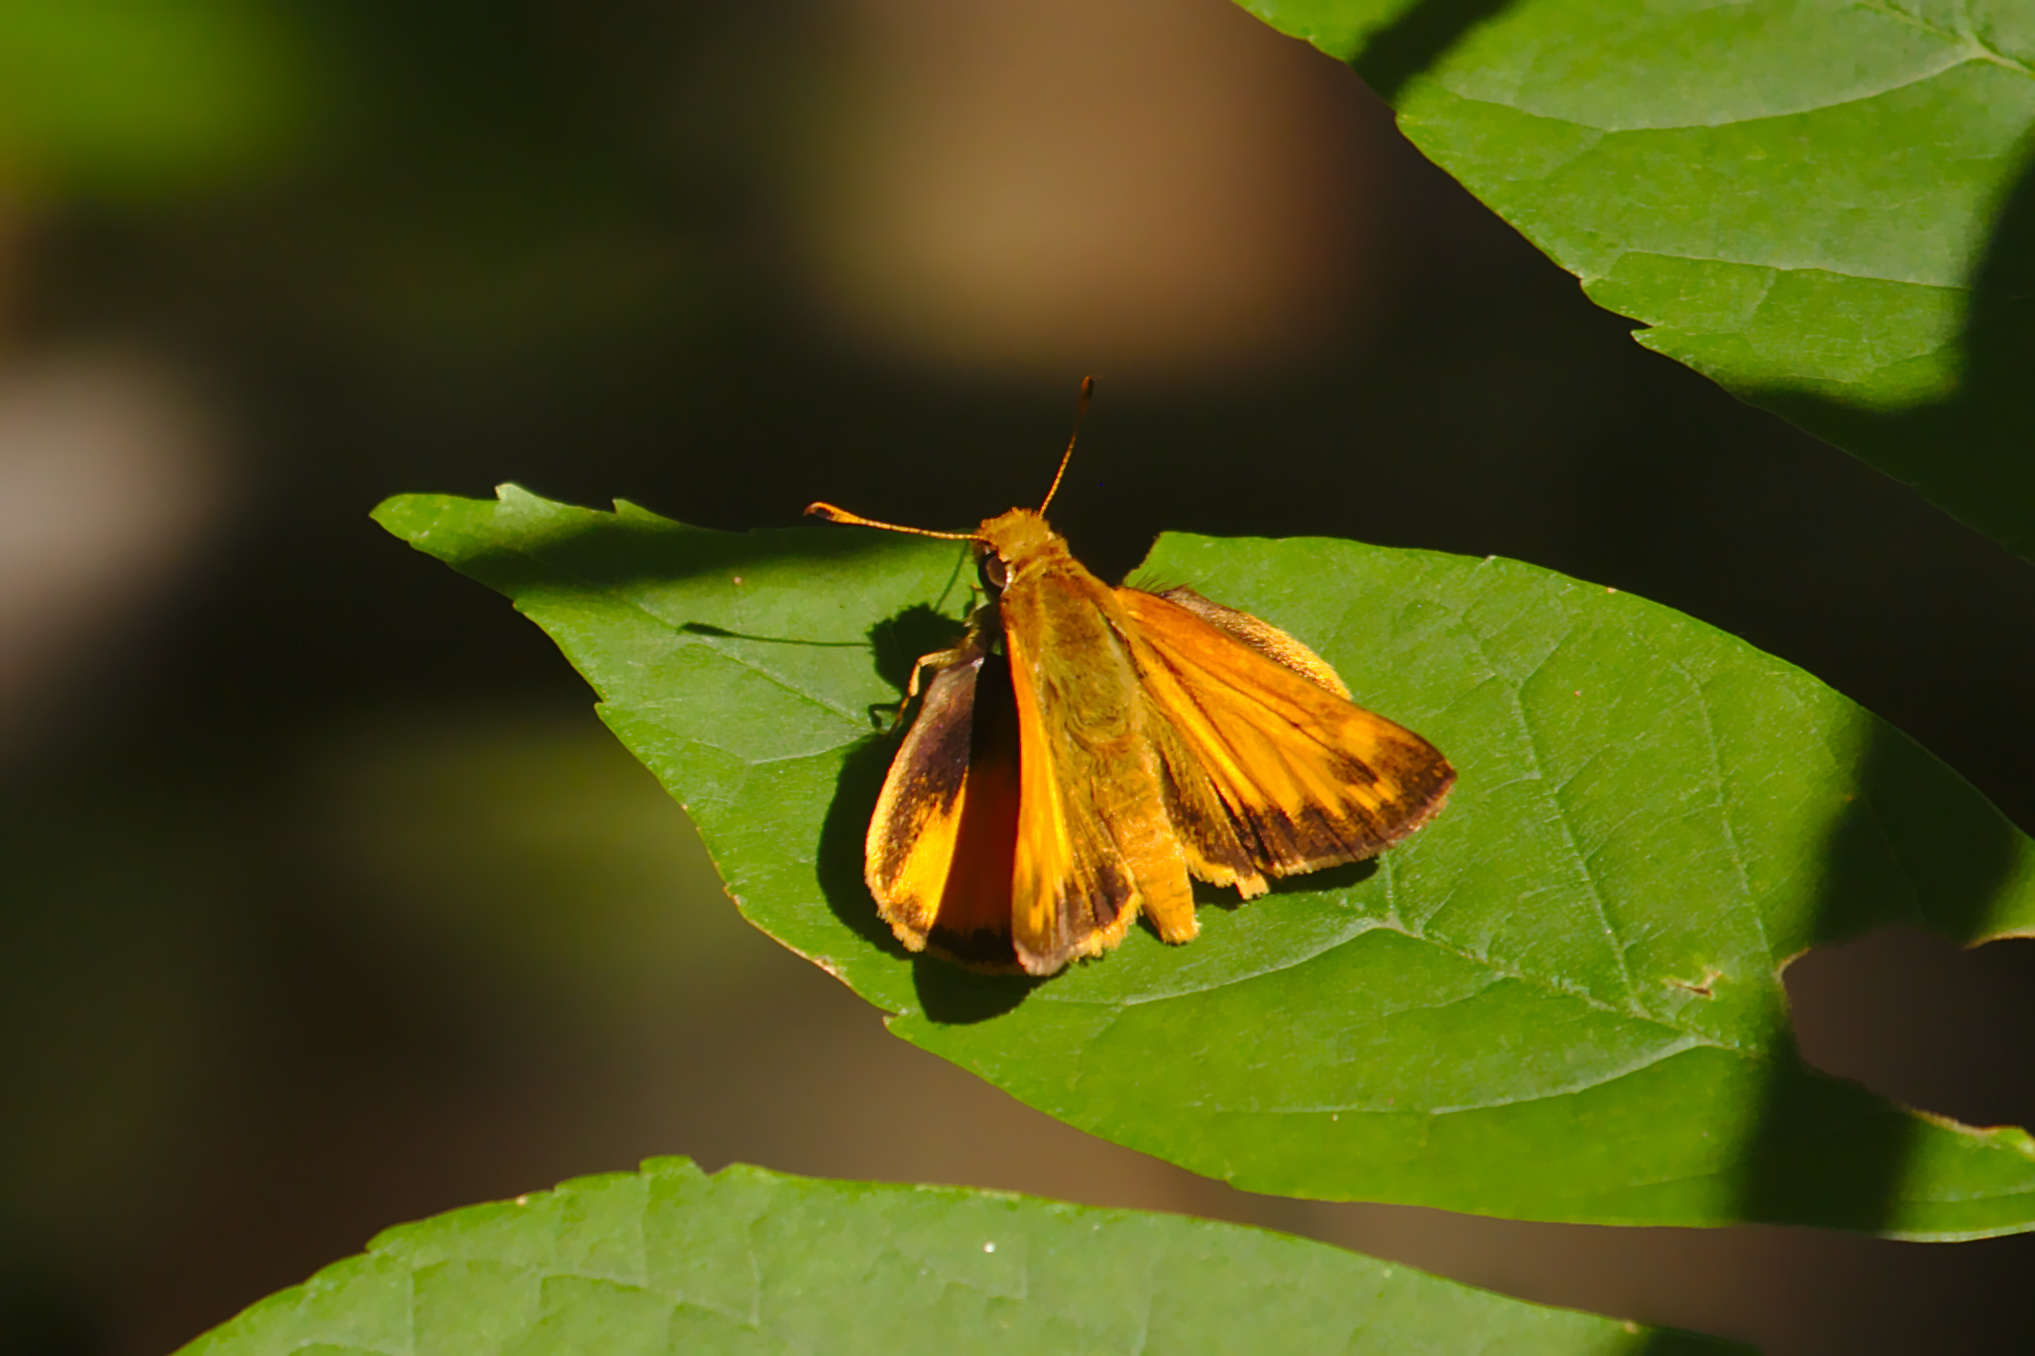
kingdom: Animalia
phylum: Arthropoda
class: Insecta
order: Lepidoptera
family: Hesperiidae
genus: Lon
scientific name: Lon zabulon
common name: Zabulon skipper
